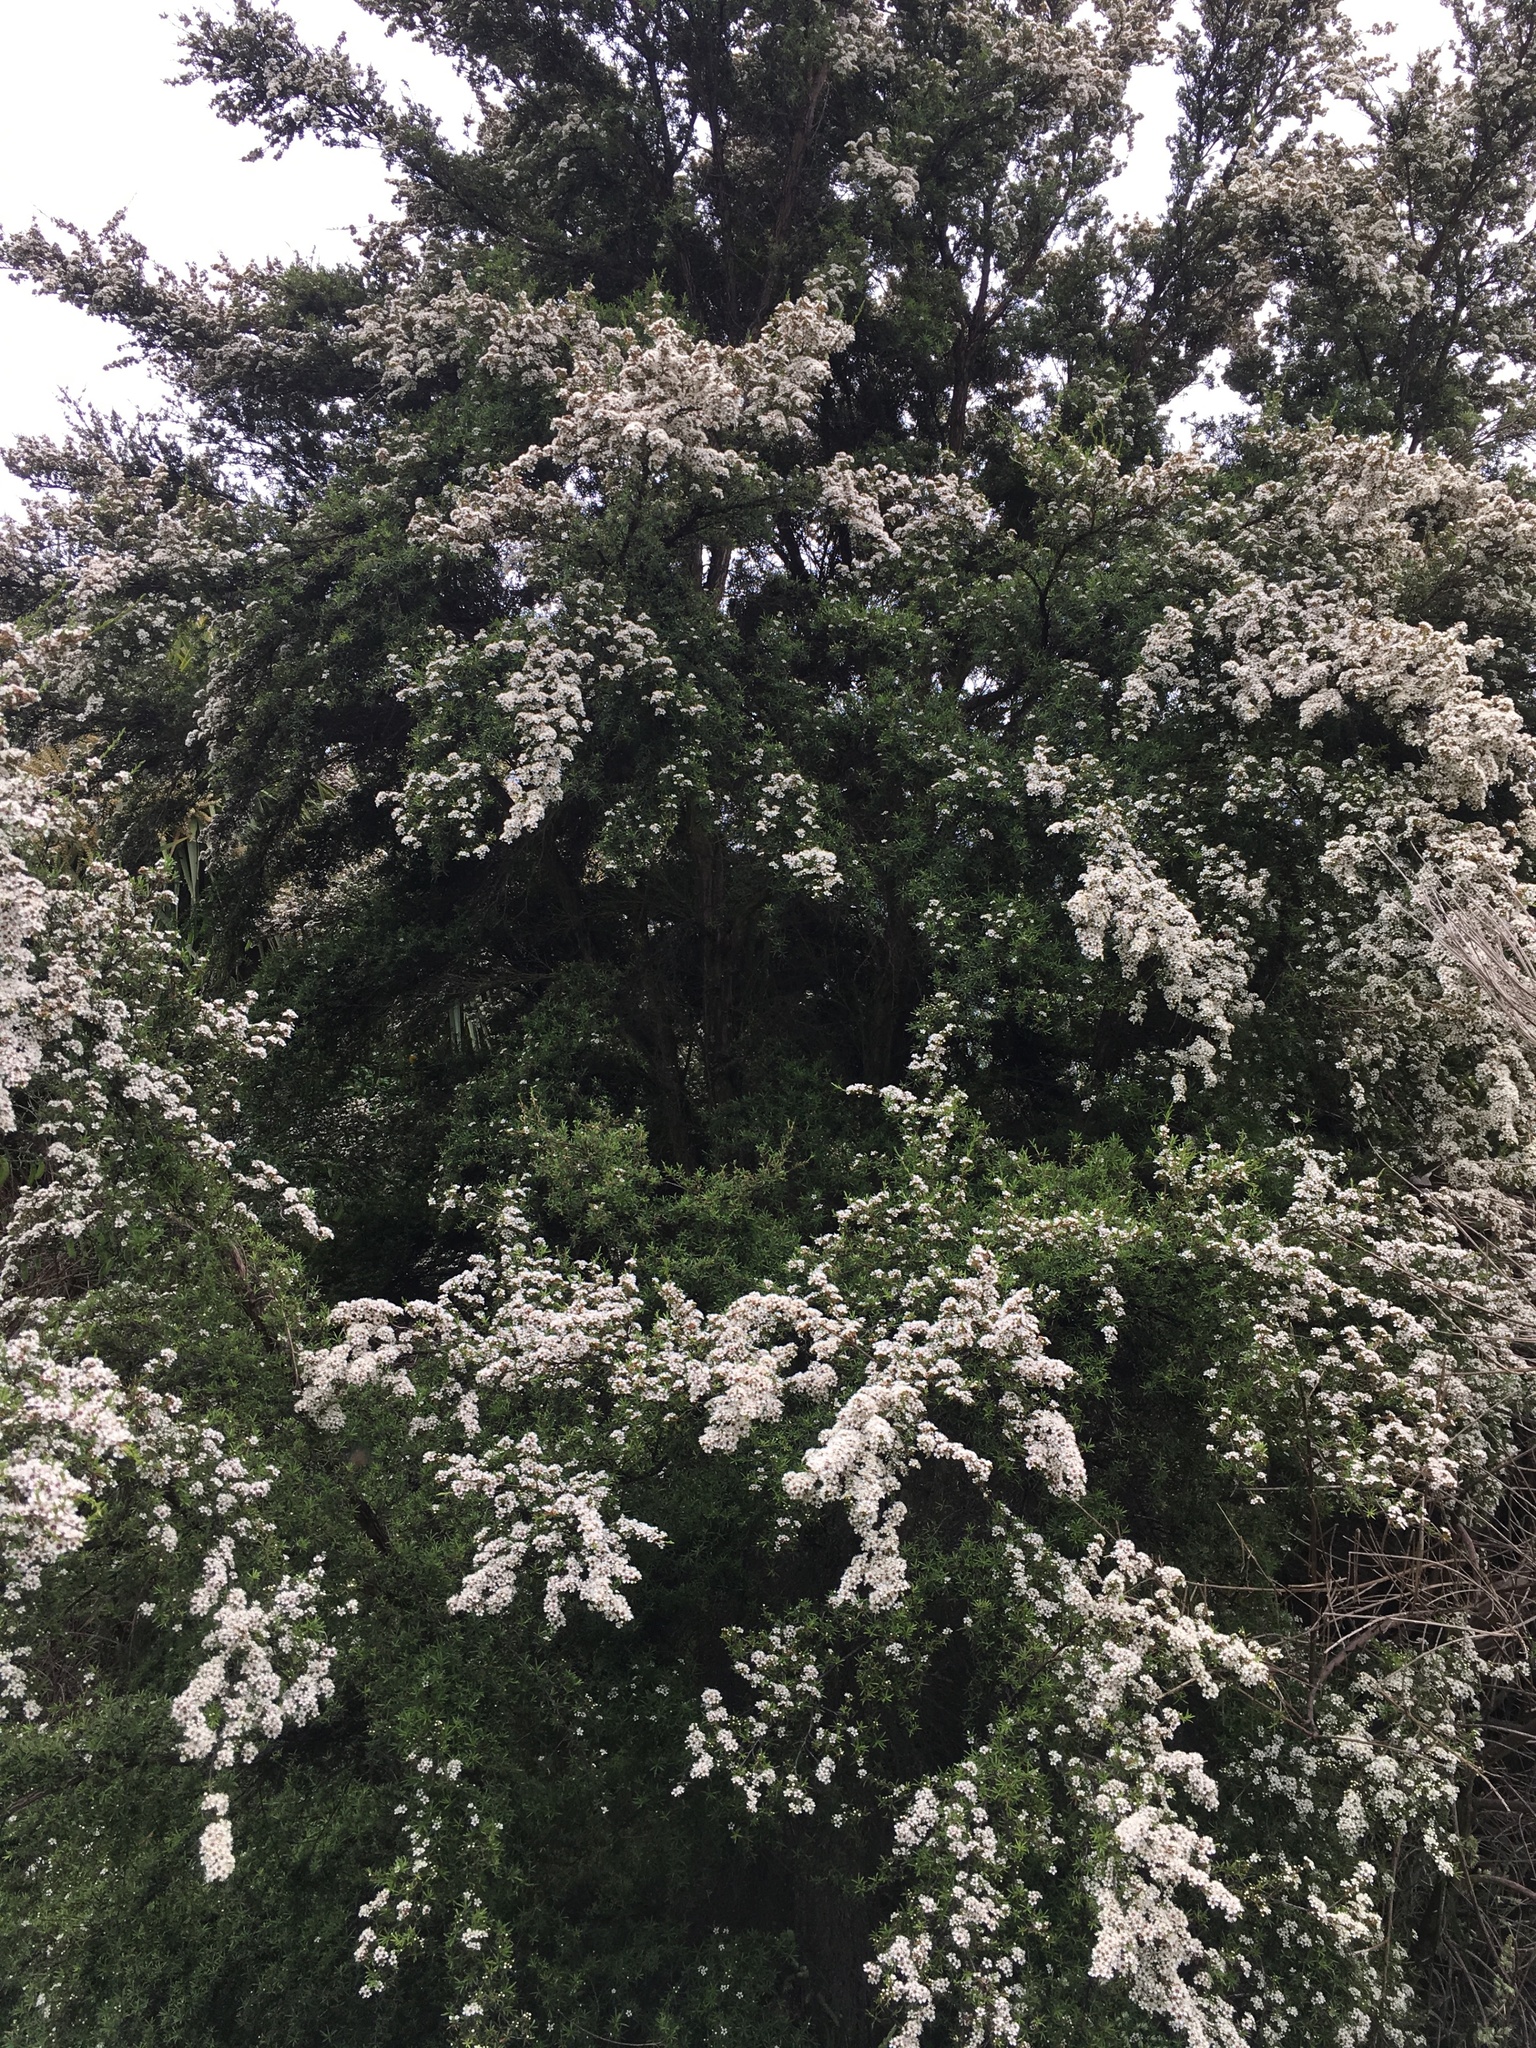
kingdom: Plantae
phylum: Tracheophyta
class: Magnoliopsida
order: Myrtales
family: Myrtaceae
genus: Kunzea
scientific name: Kunzea robusta
